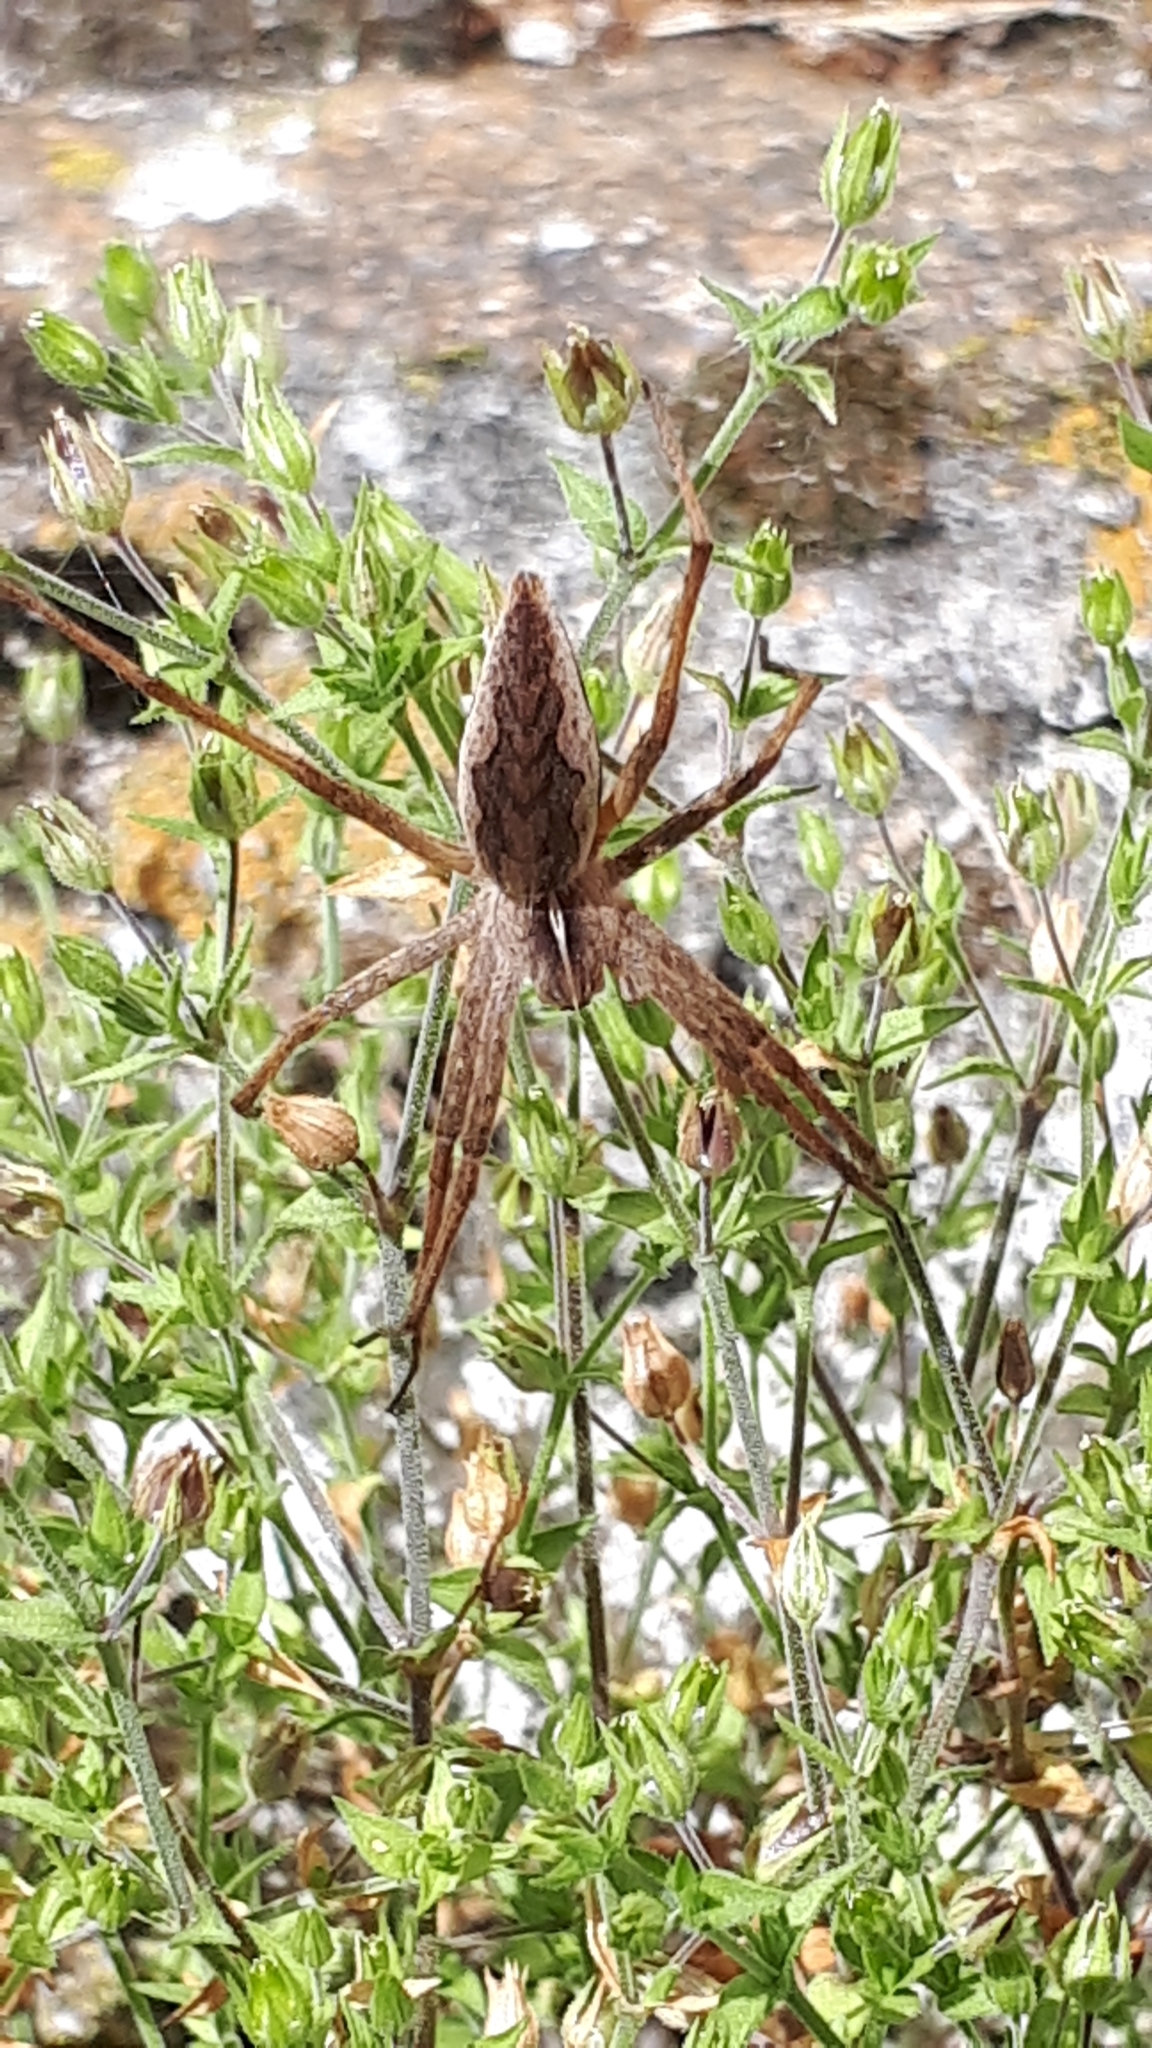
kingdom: Animalia
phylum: Arthropoda
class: Arachnida
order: Araneae
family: Pisauridae
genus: Pisaura
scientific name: Pisaura mirabilis
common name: Tent spider
